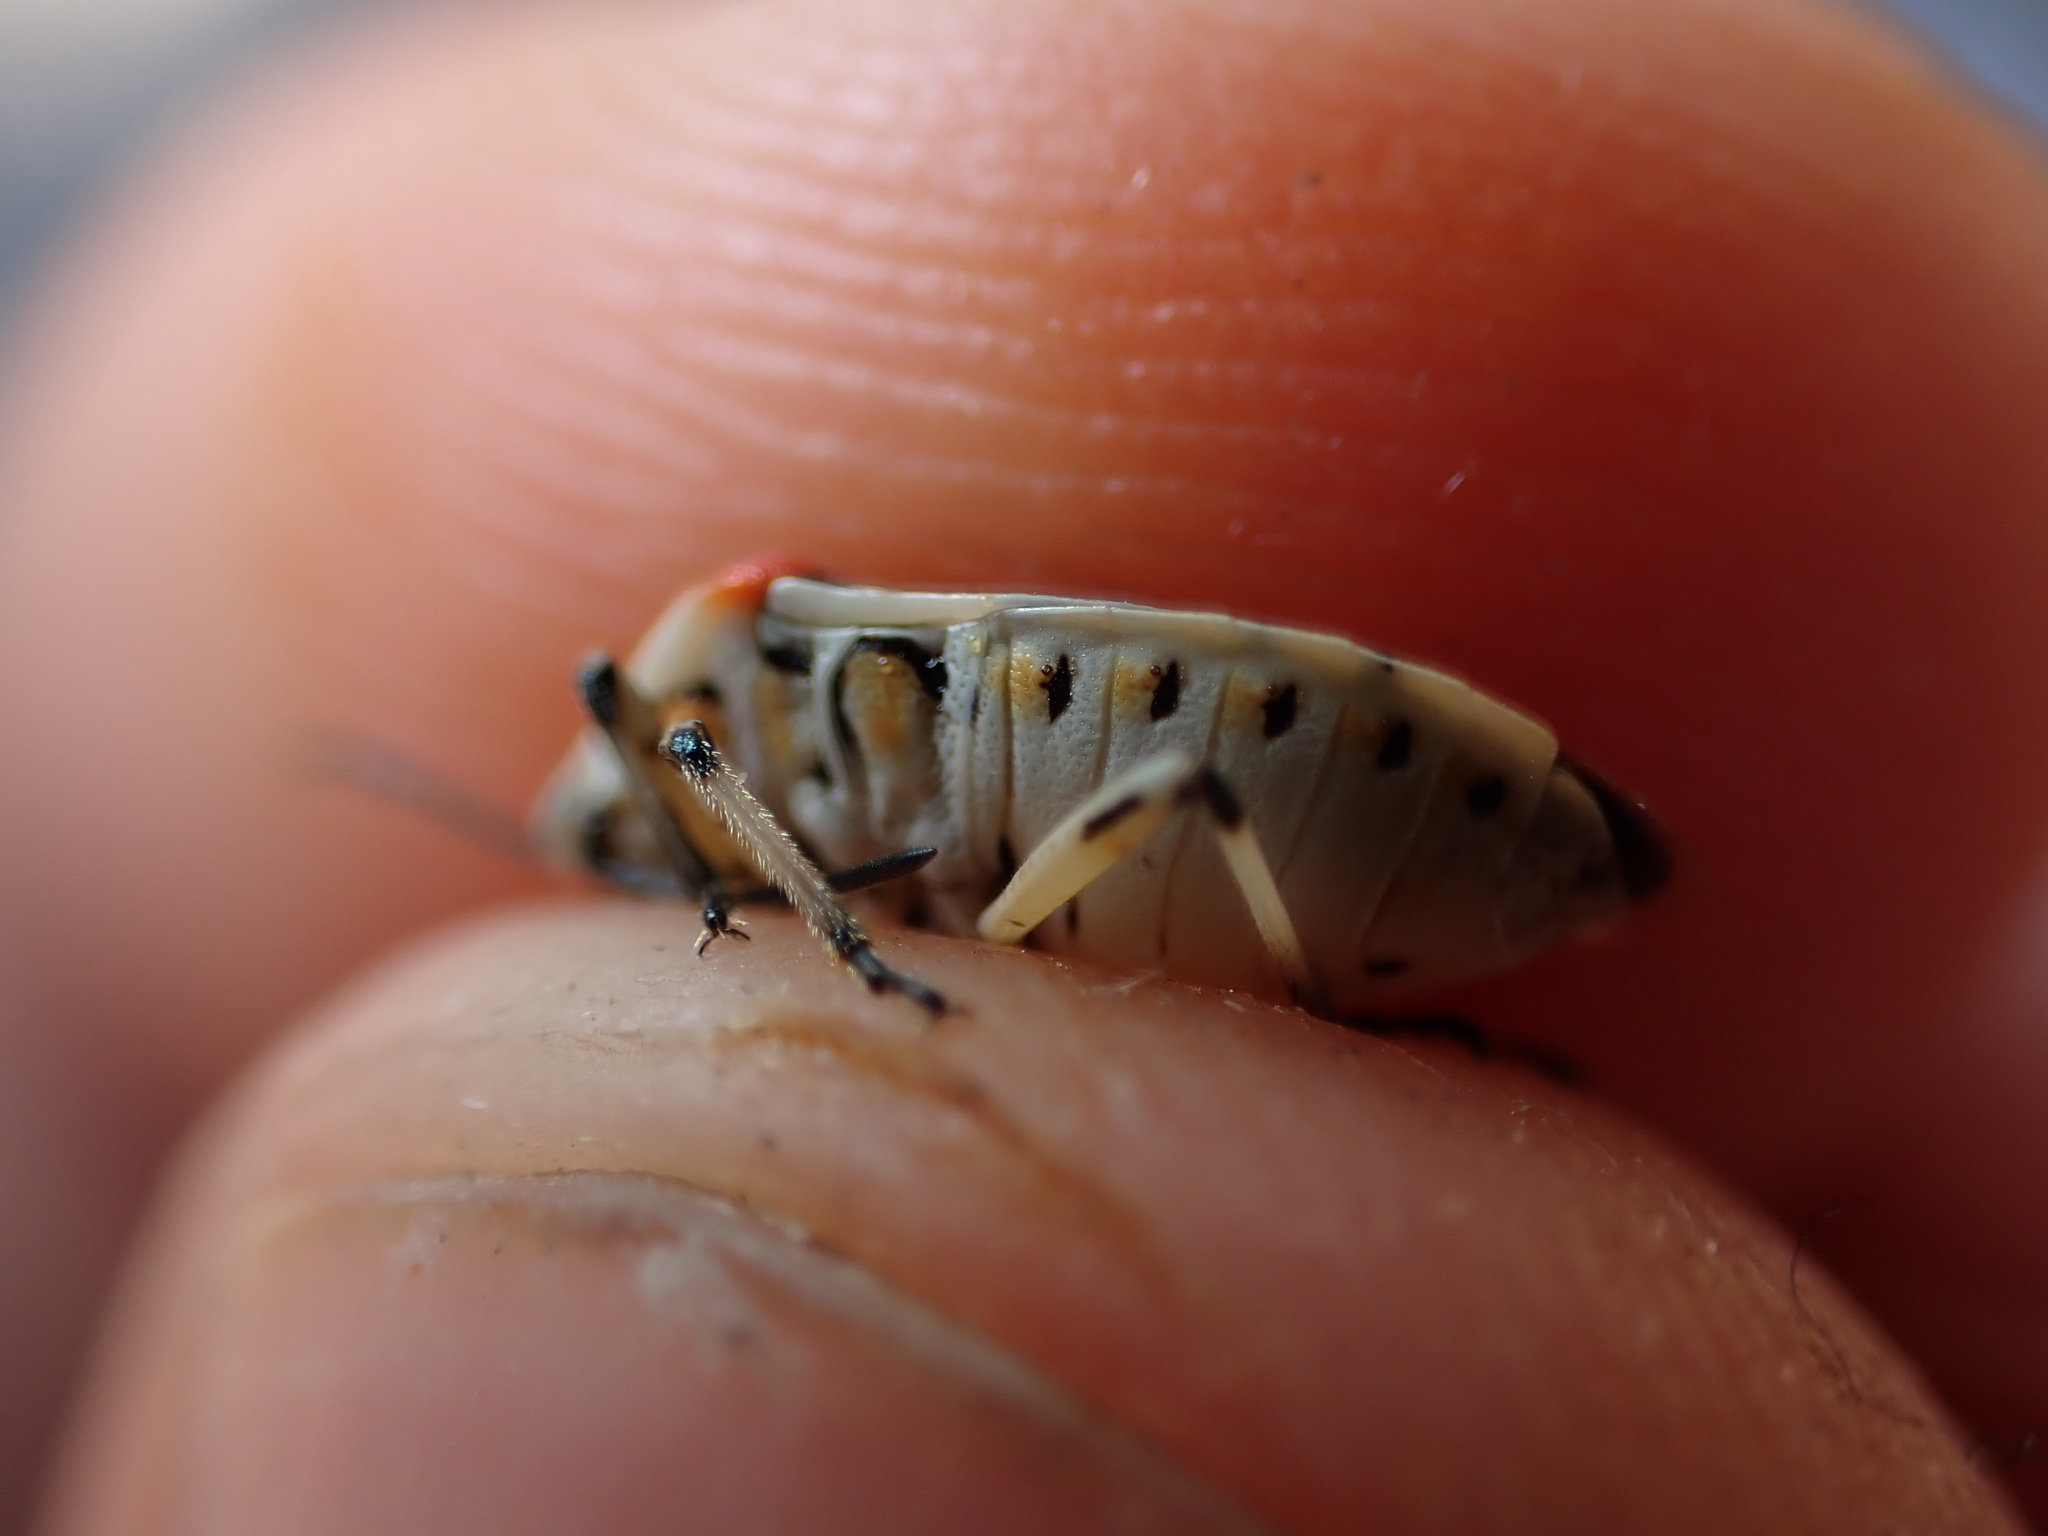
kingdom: Animalia
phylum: Arthropoda
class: Insecta
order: Hemiptera
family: Pentatomidae
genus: Eurydema
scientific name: Eurydema ornata
